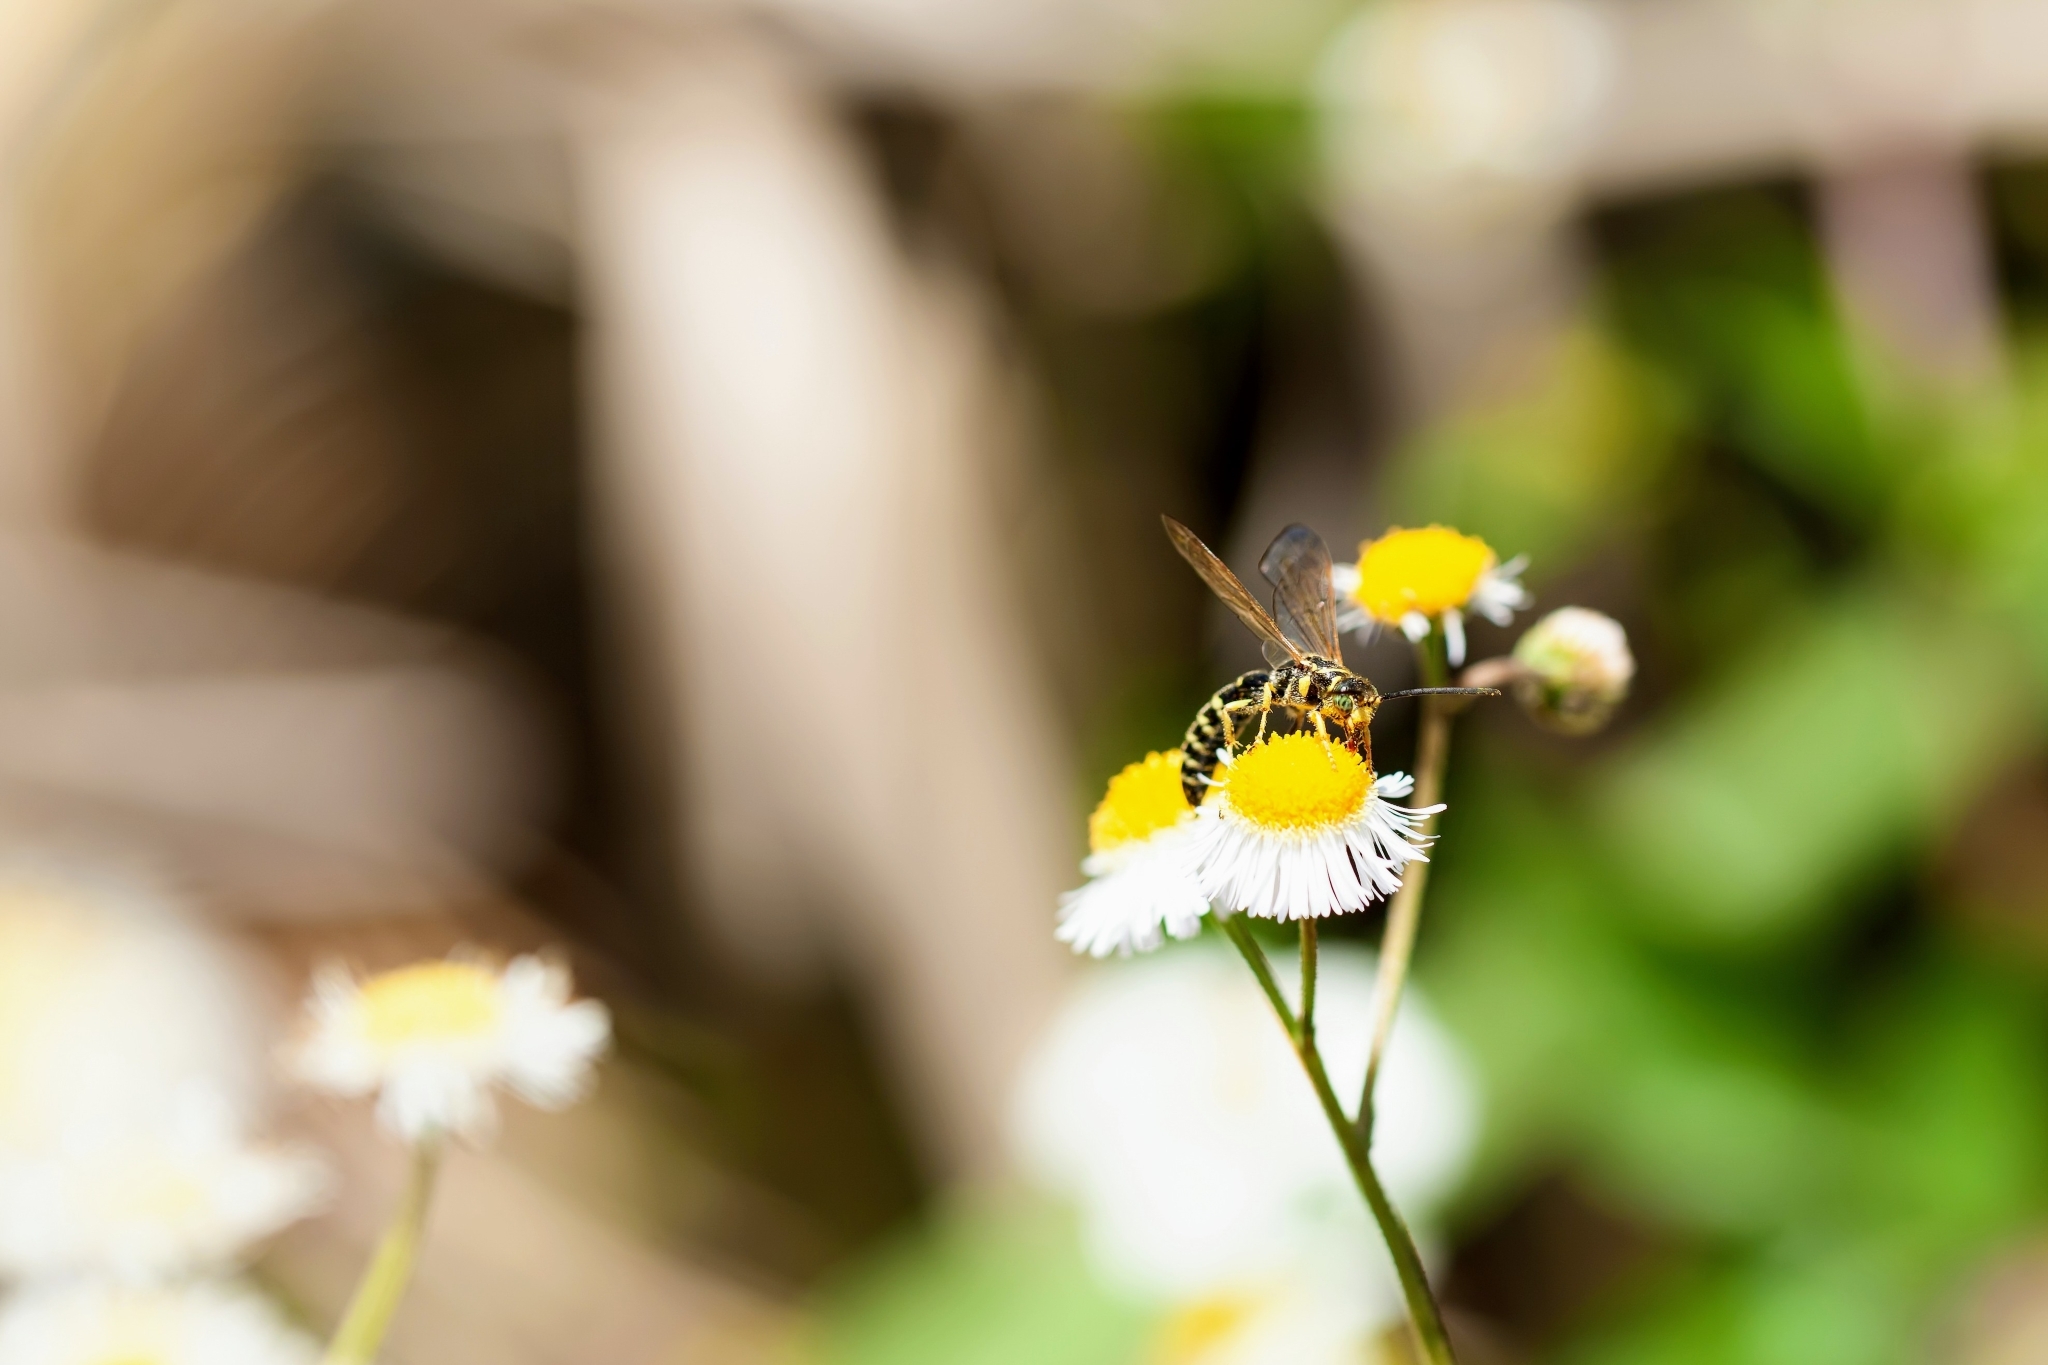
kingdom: Animalia
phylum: Arthropoda
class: Insecta
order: Hymenoptera
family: Tiphiidae
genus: Myzinum
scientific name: Myzinum
